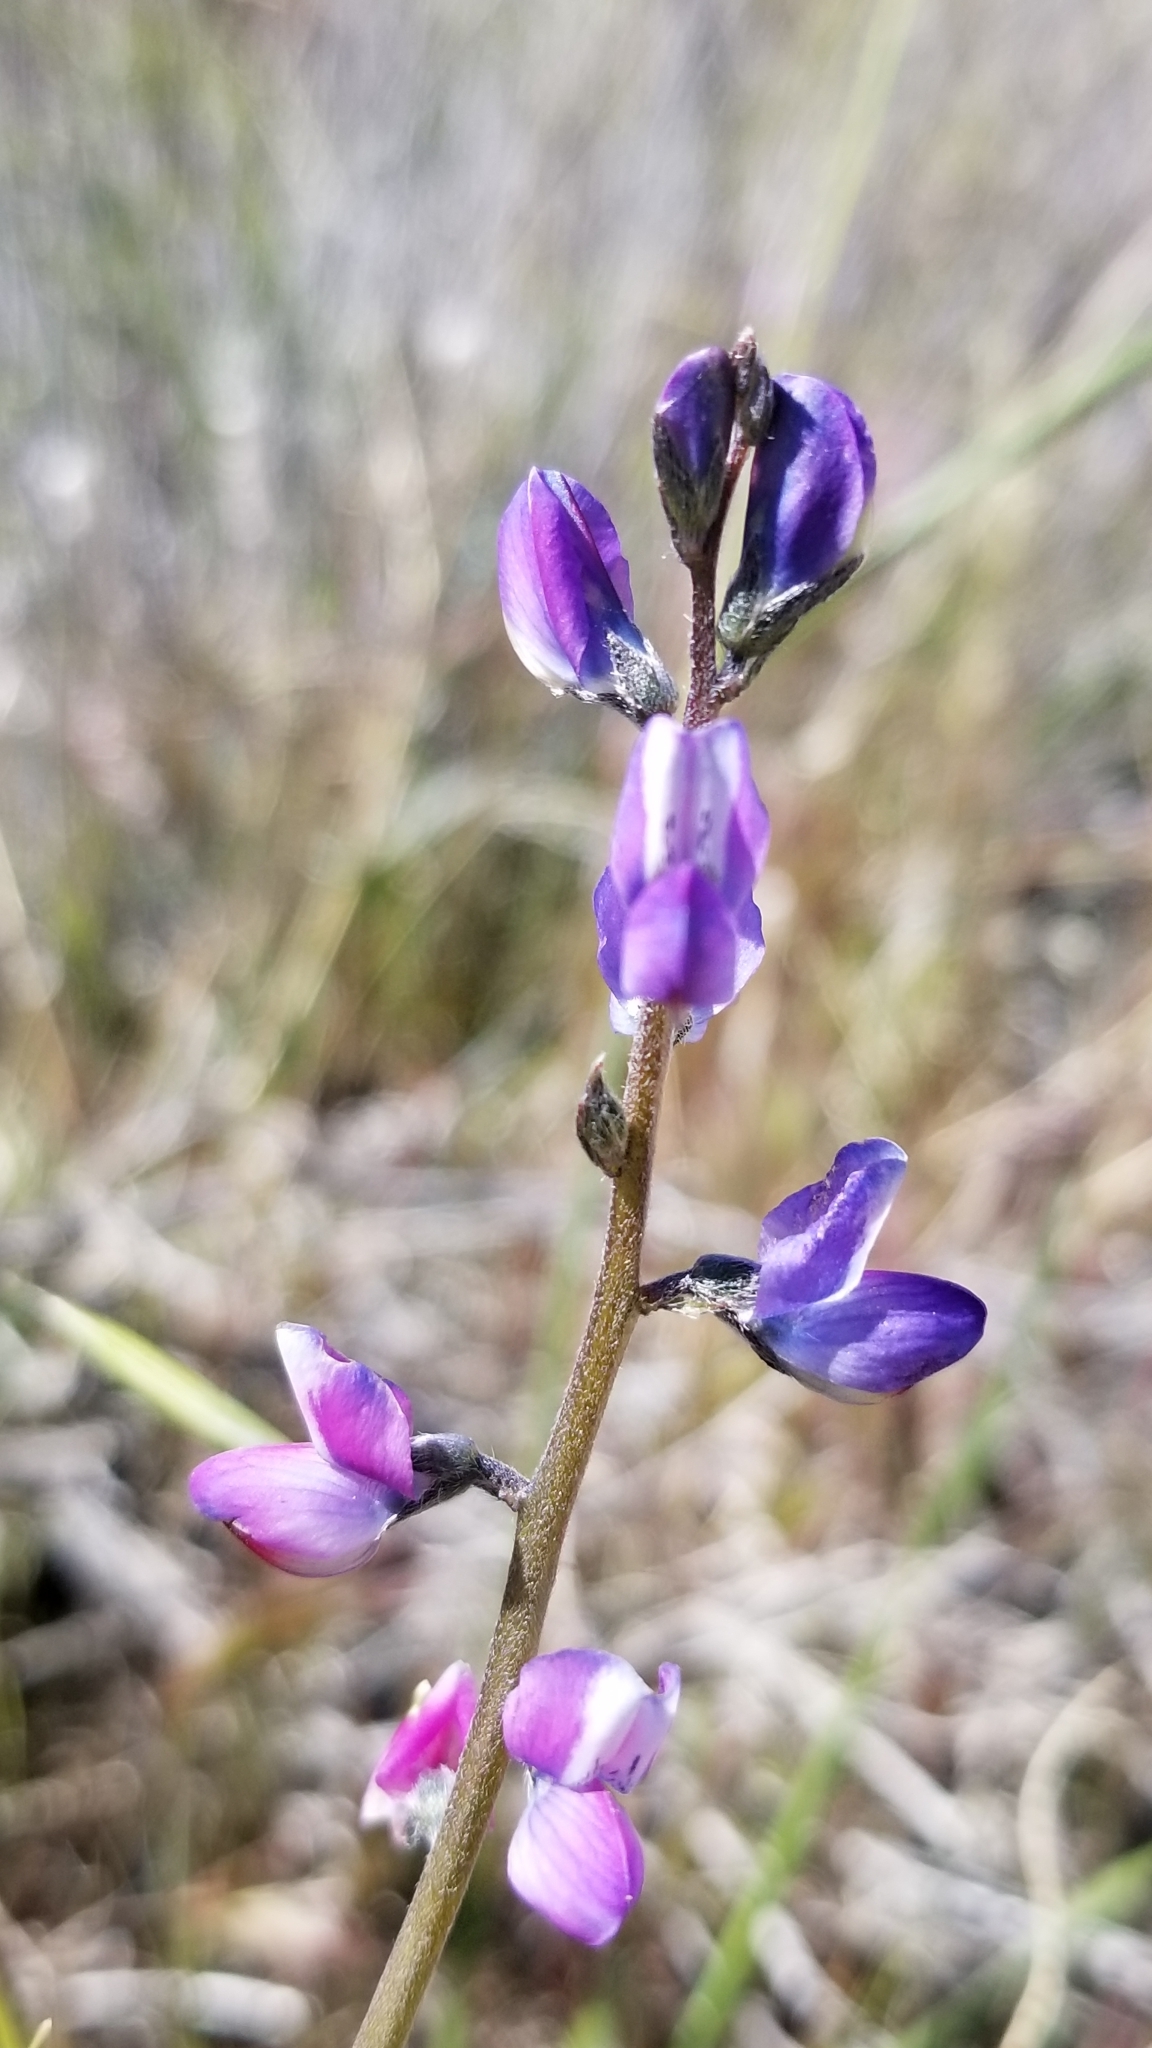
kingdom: Plantae
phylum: Tracheophyta
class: Magnoliopsida
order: Fabales
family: Fabaceae
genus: Lupinus
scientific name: Lupinus truncatus
